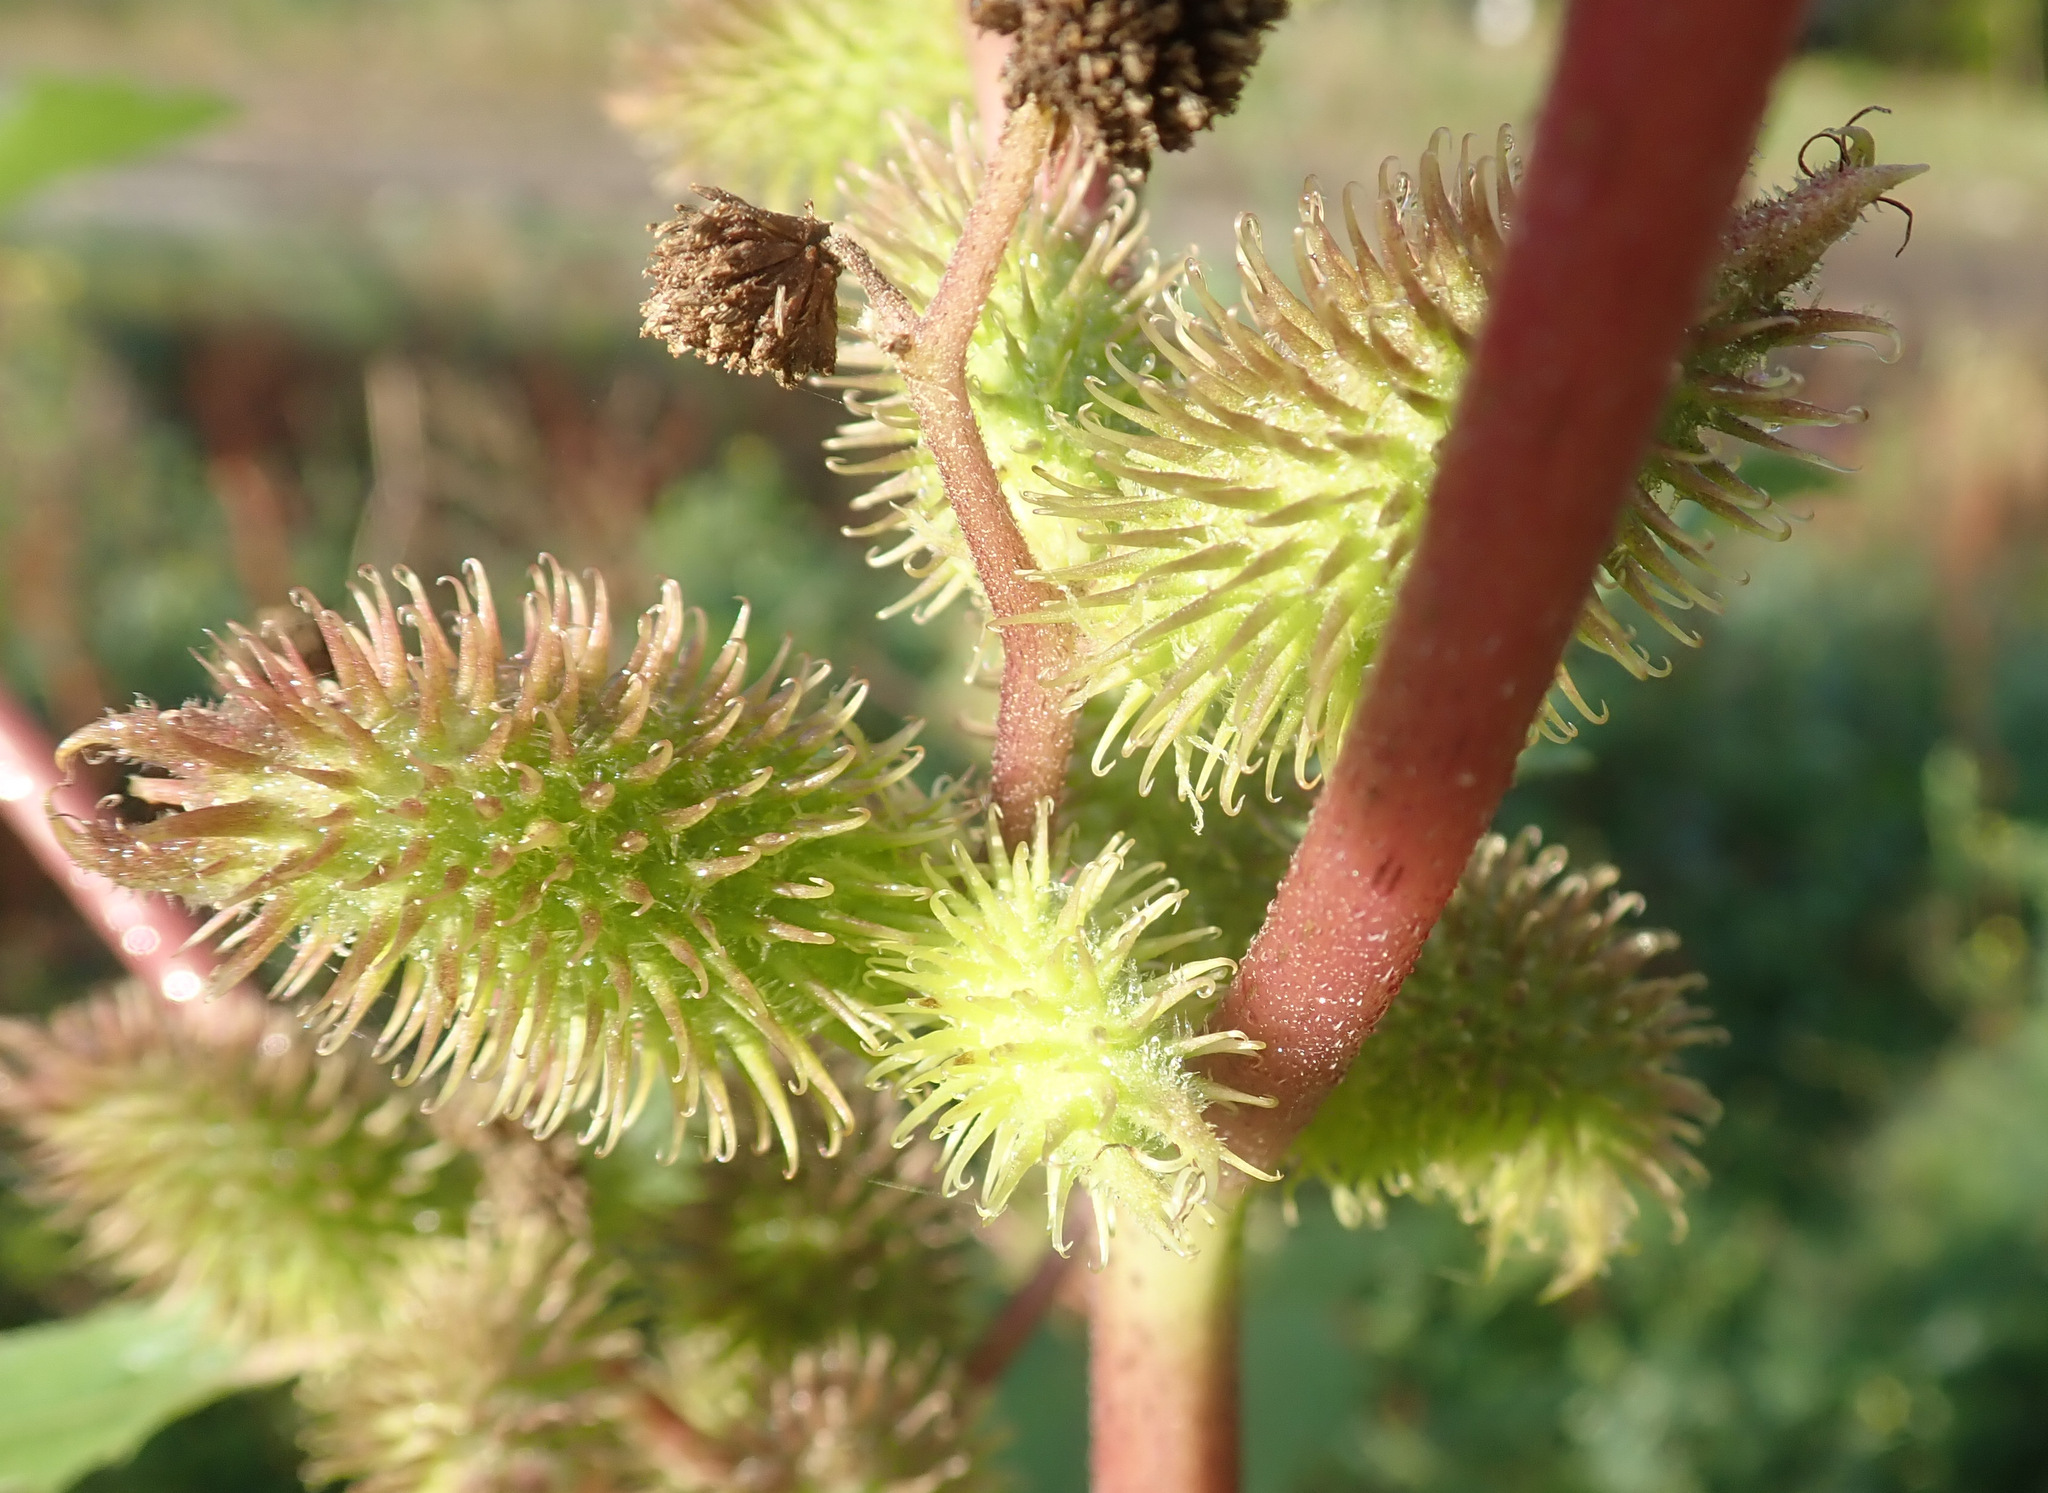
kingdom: Plantae
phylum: Tracheophyta
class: Magnoliopsida
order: Asterales
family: Asteraceae
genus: Xanthium
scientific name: Xanthium orientale
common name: Californian burr
